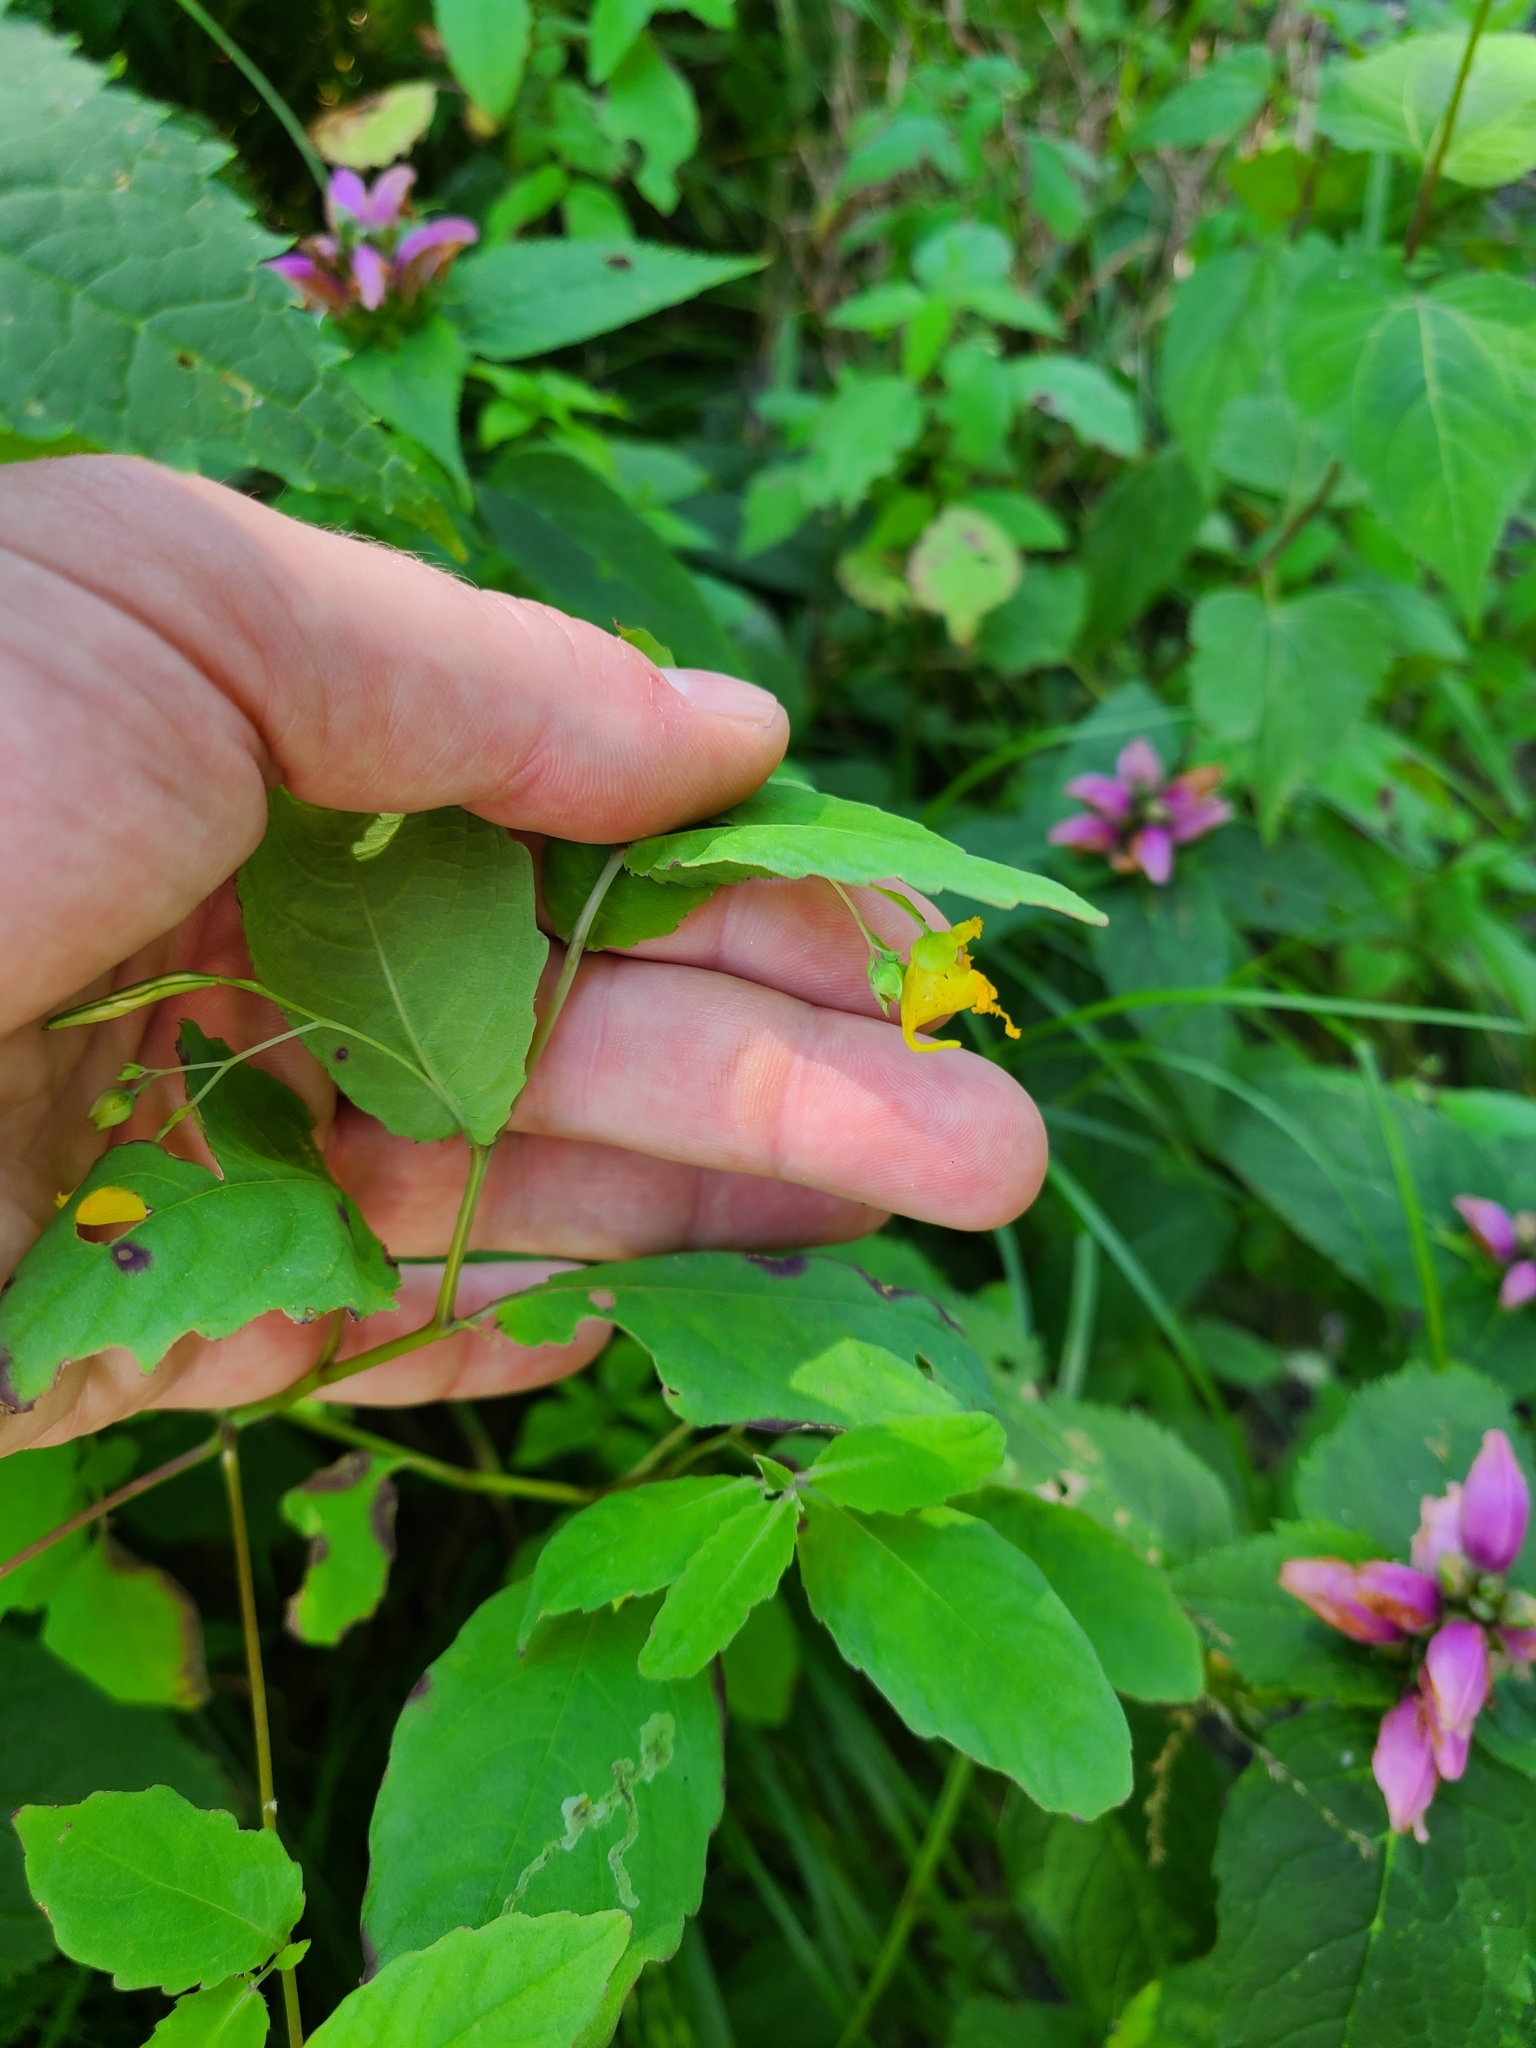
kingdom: Animalia
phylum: Arthropoda
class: Insecta
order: Diptera
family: Agromyzidae
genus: Phytoliriomyza
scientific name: Phytoliriomyza melampyga
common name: Jewelweed leaf-miner fly
